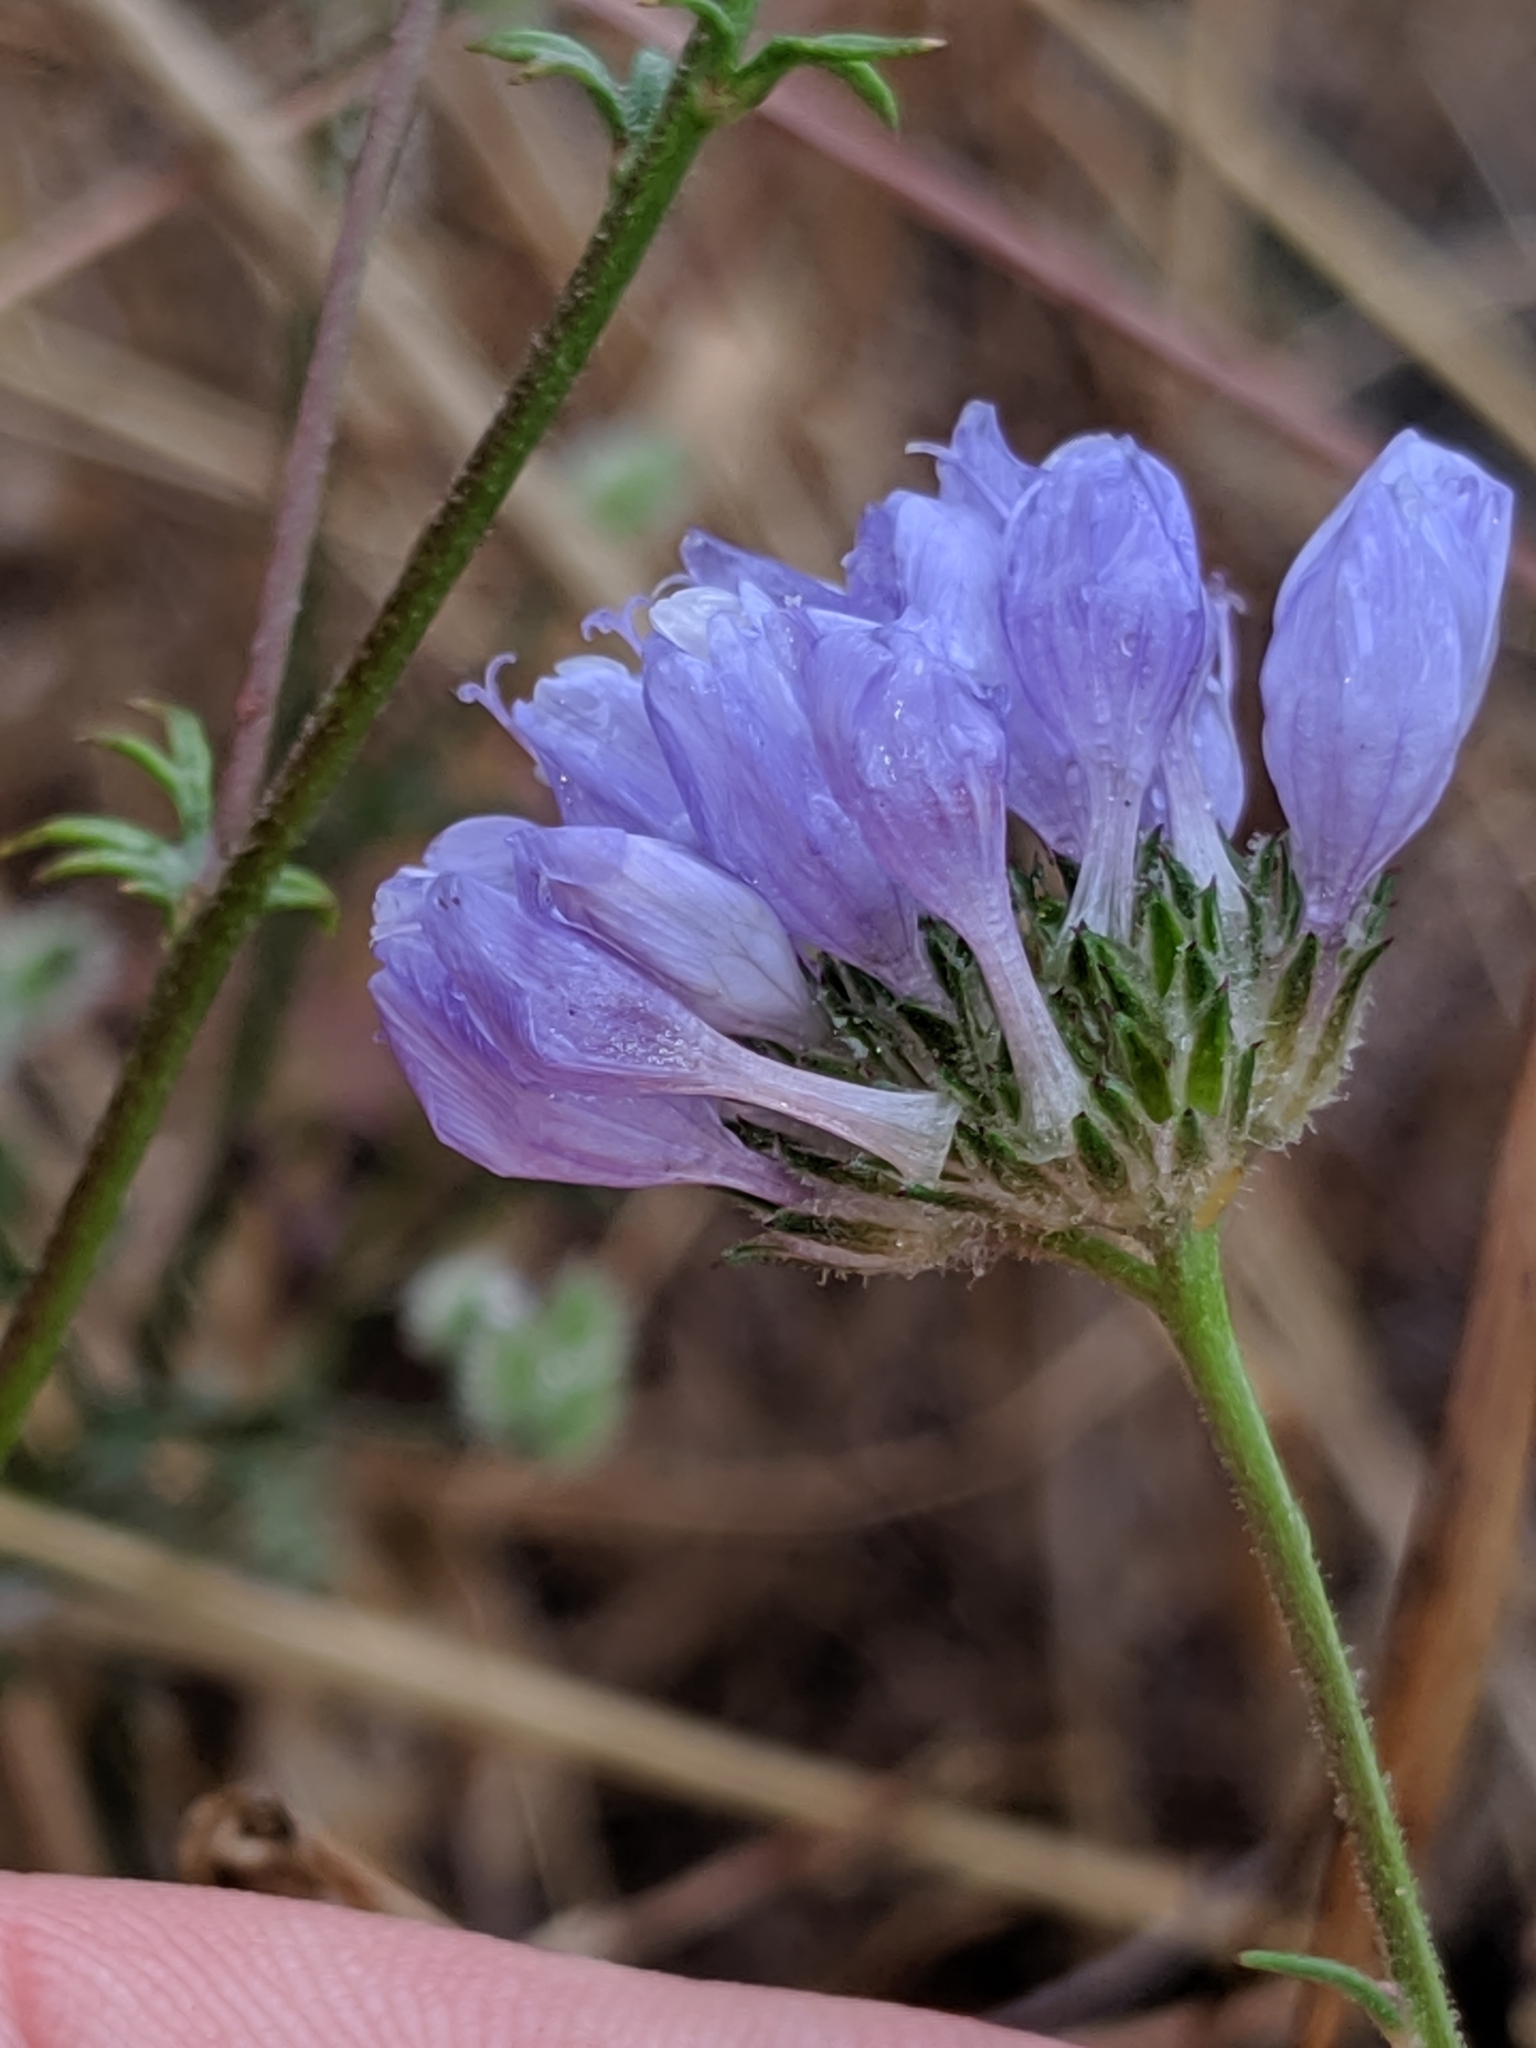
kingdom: Plantae
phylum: Tracheophyta
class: Magnoliopsida
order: Ericales
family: Polemoniaceae
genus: Gilia
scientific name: Gilia achilleifolia
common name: California gily-flower
